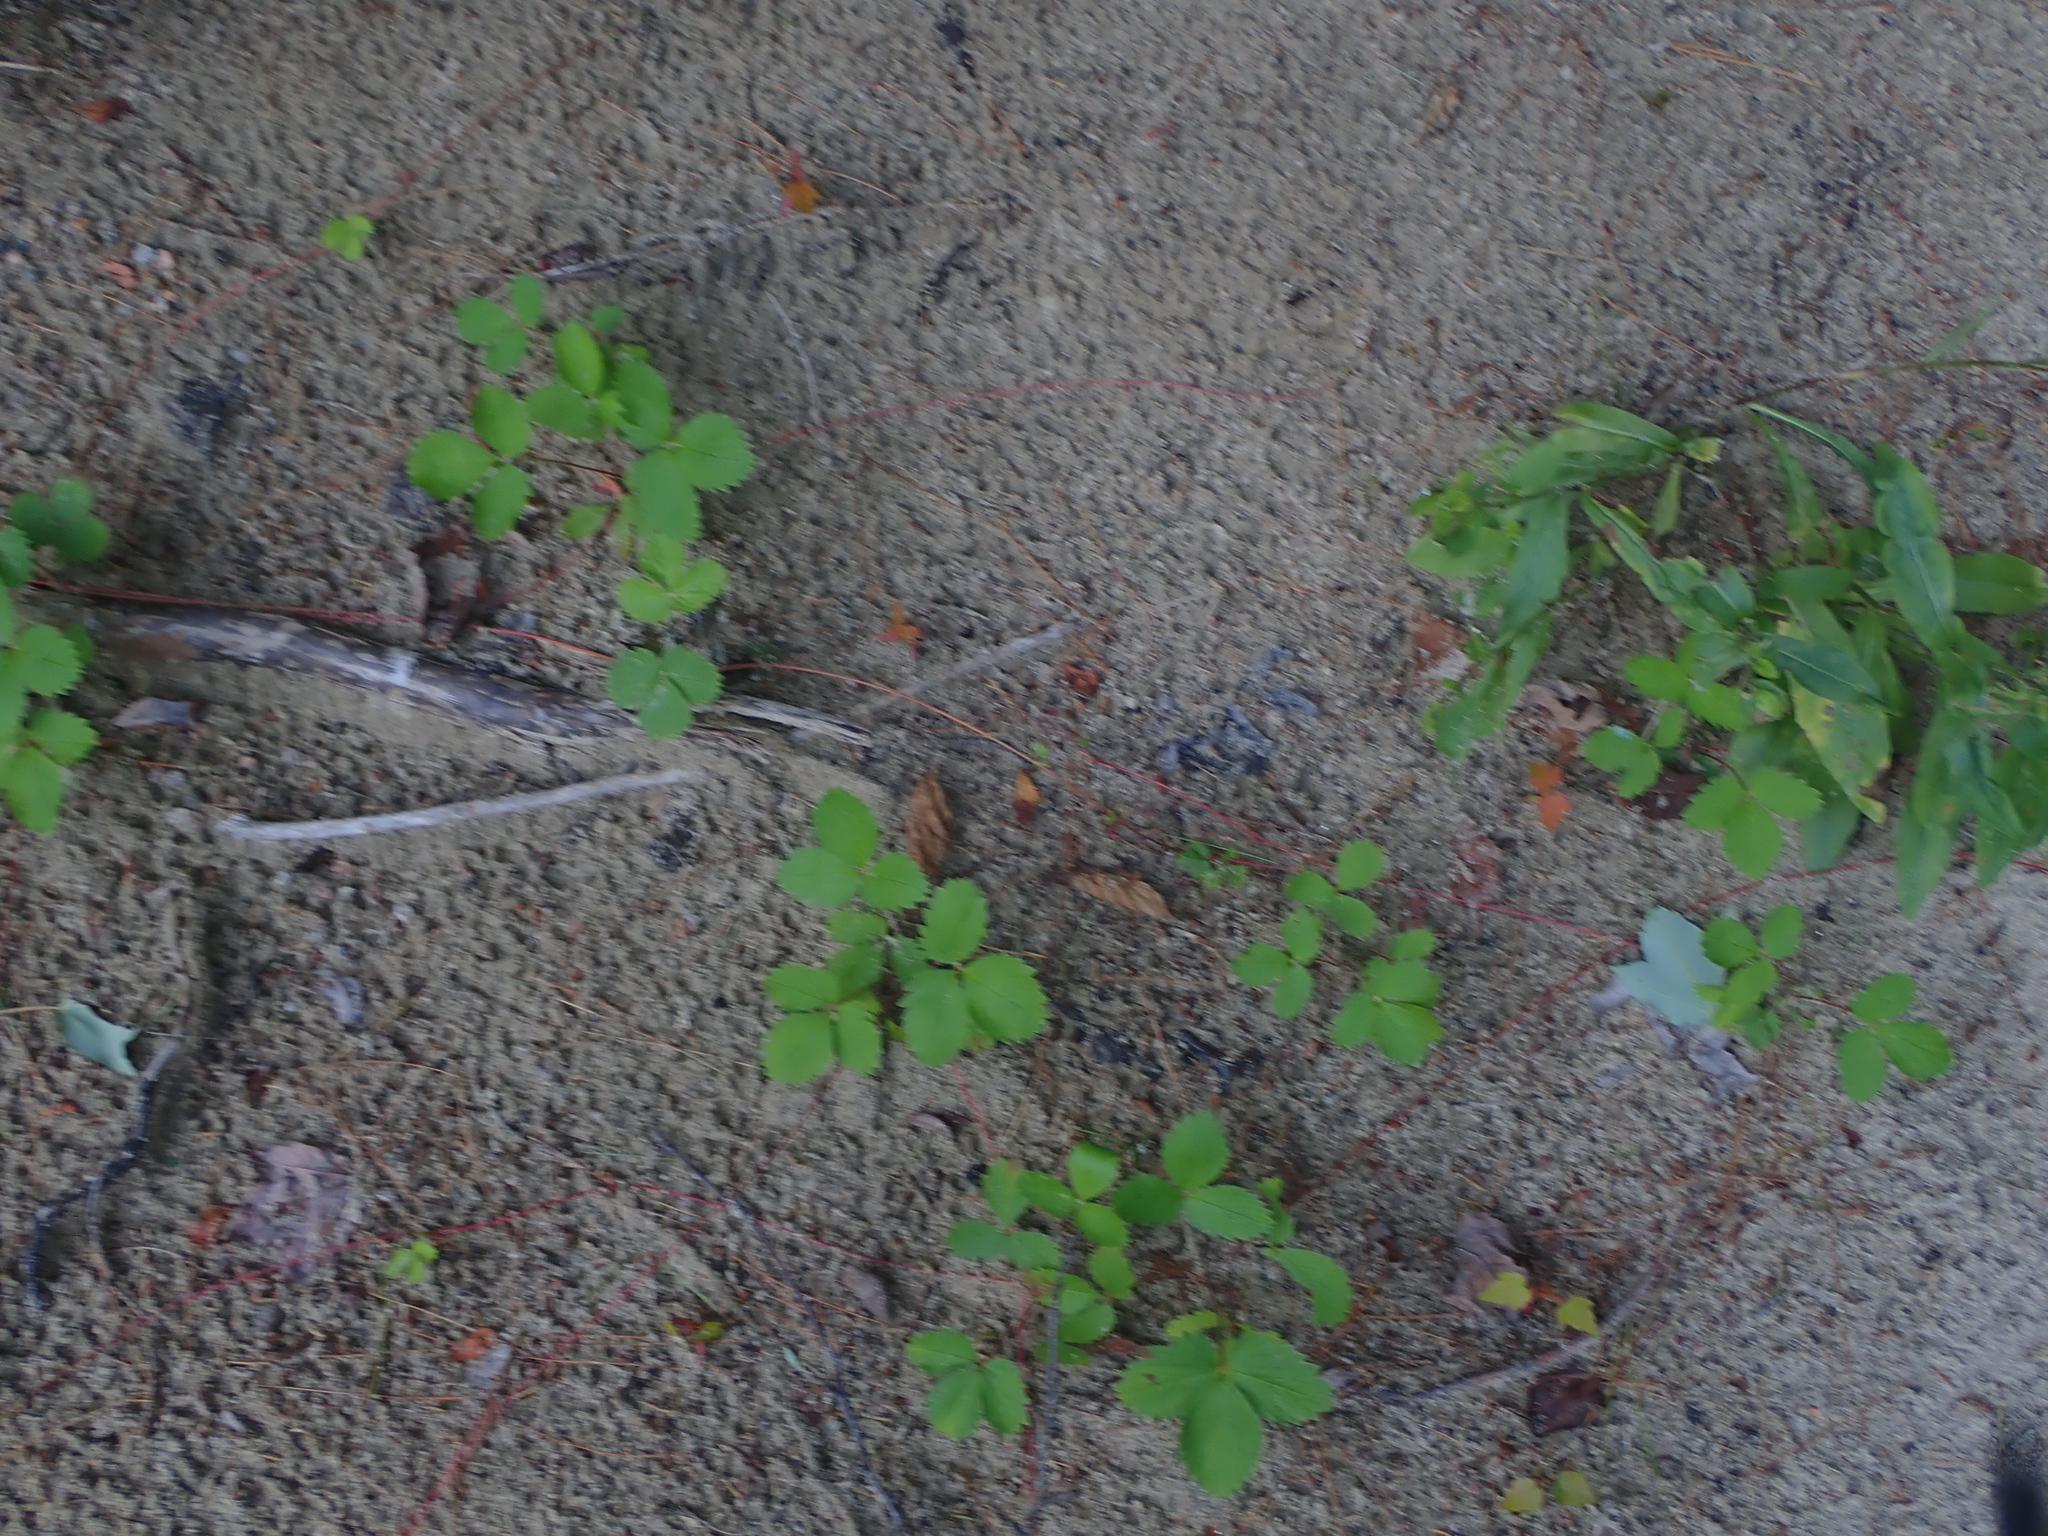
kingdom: Plantae
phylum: Tracheophyta
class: Magnoliopsida
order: Rosales
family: Rosaceae
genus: Fragaria
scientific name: Fragaria virginiana
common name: Thickleaved wild strawberry
